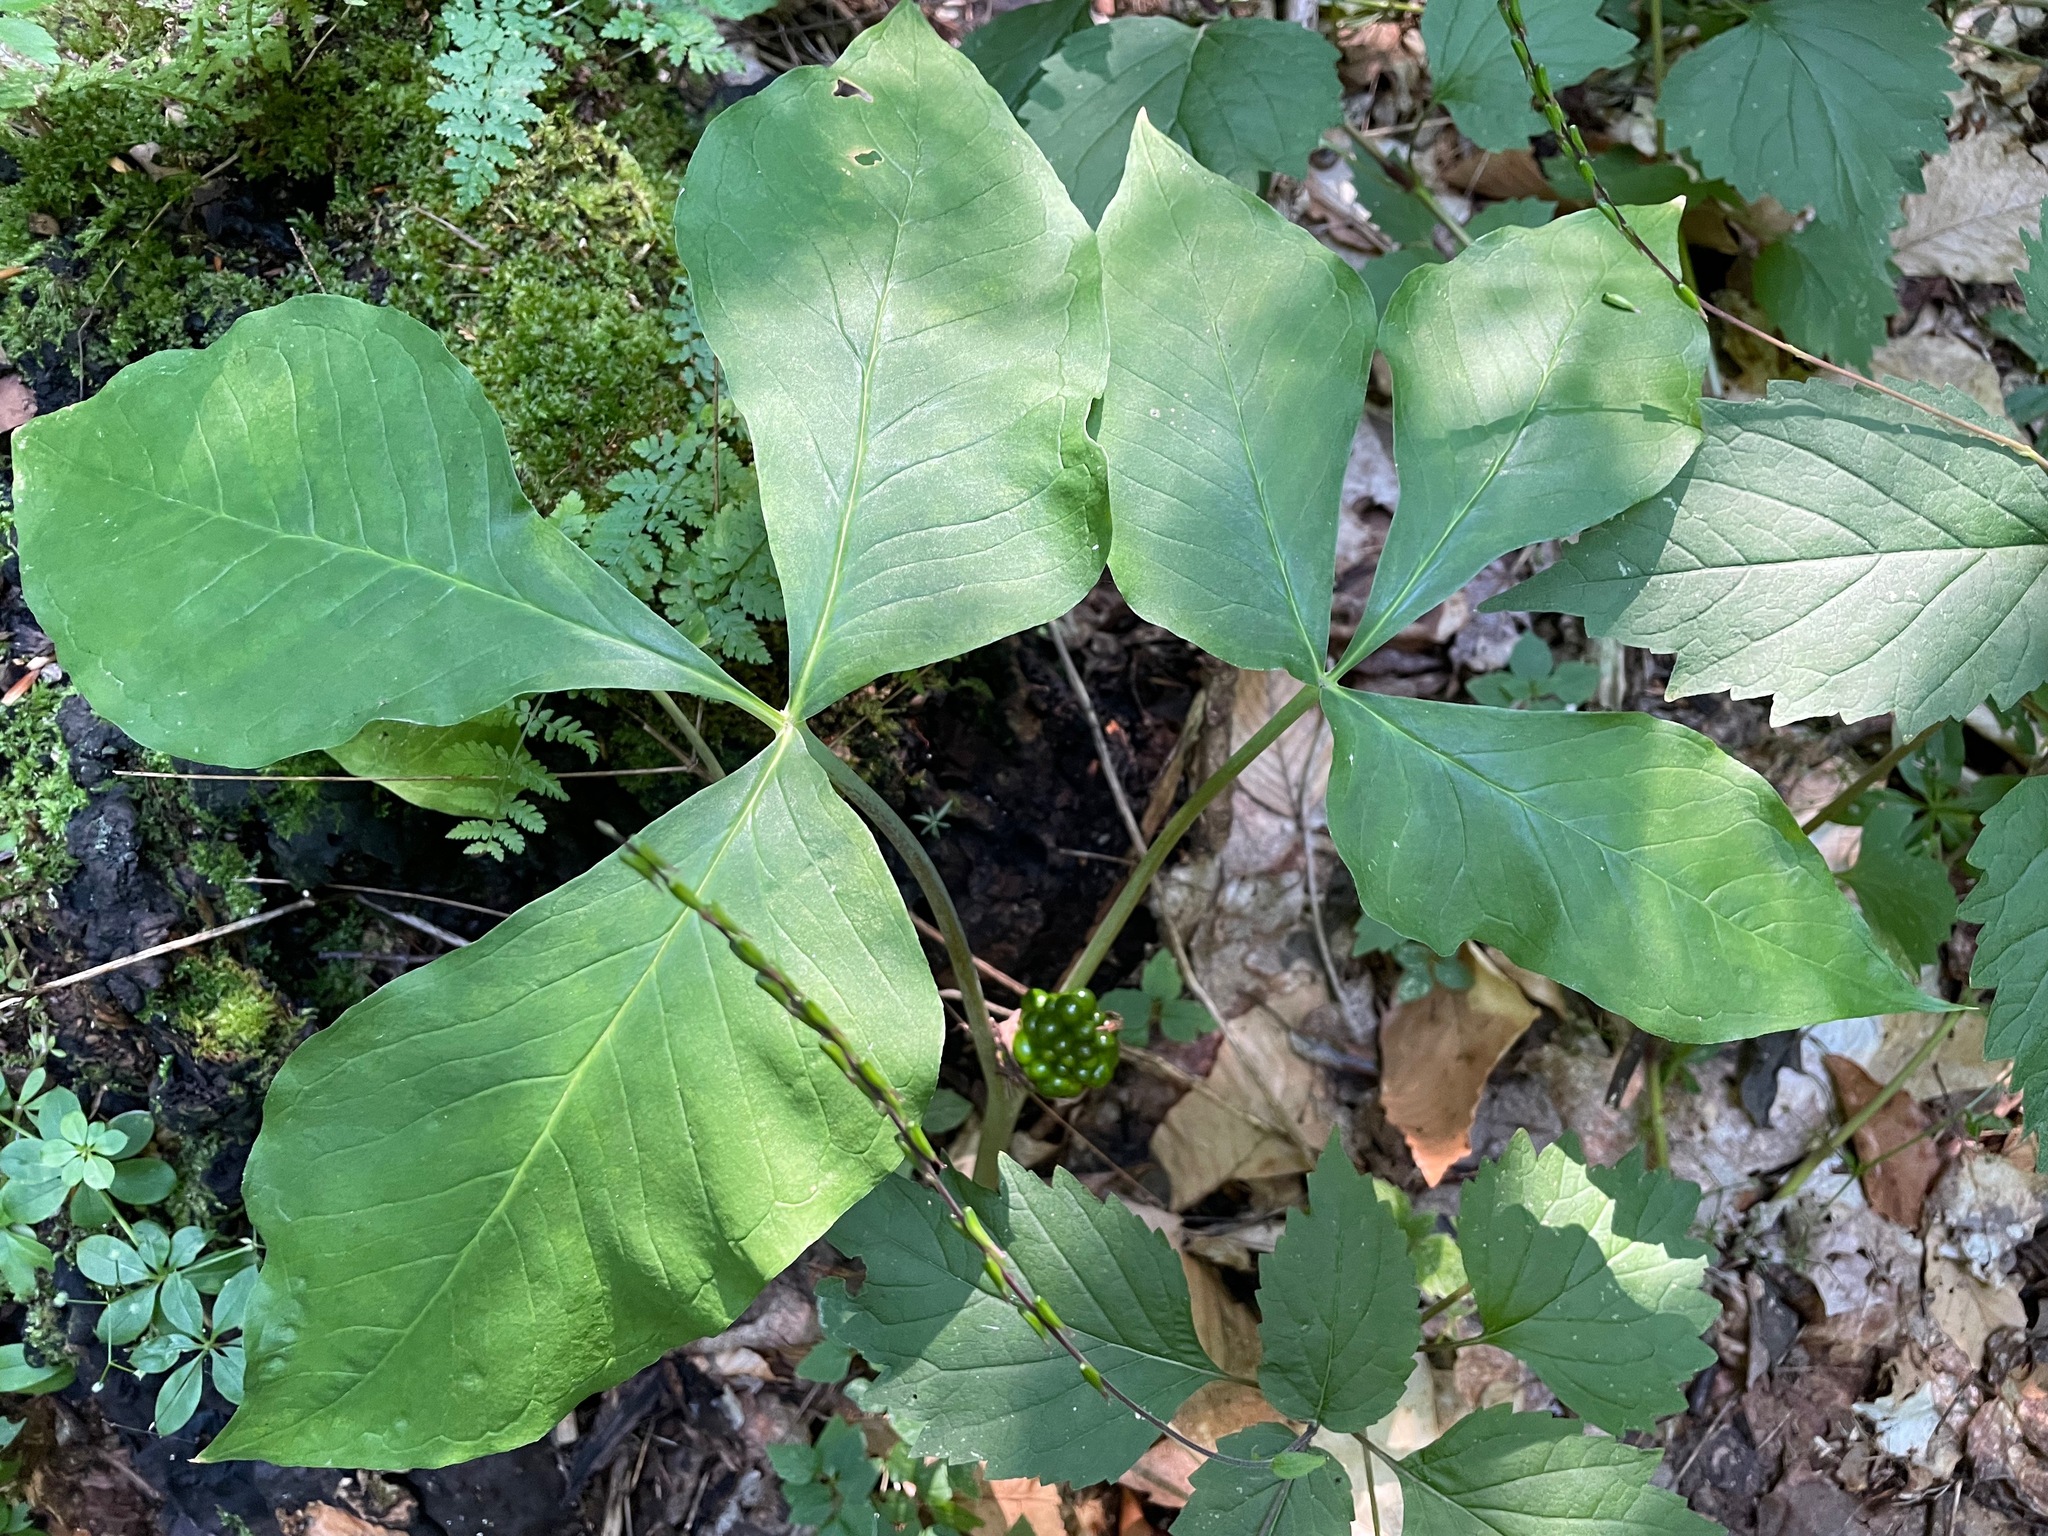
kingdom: Plantae
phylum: Tracheophyta
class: Liliopsida
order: Alismatales
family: Araceae
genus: Arisaema
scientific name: Arisaema
